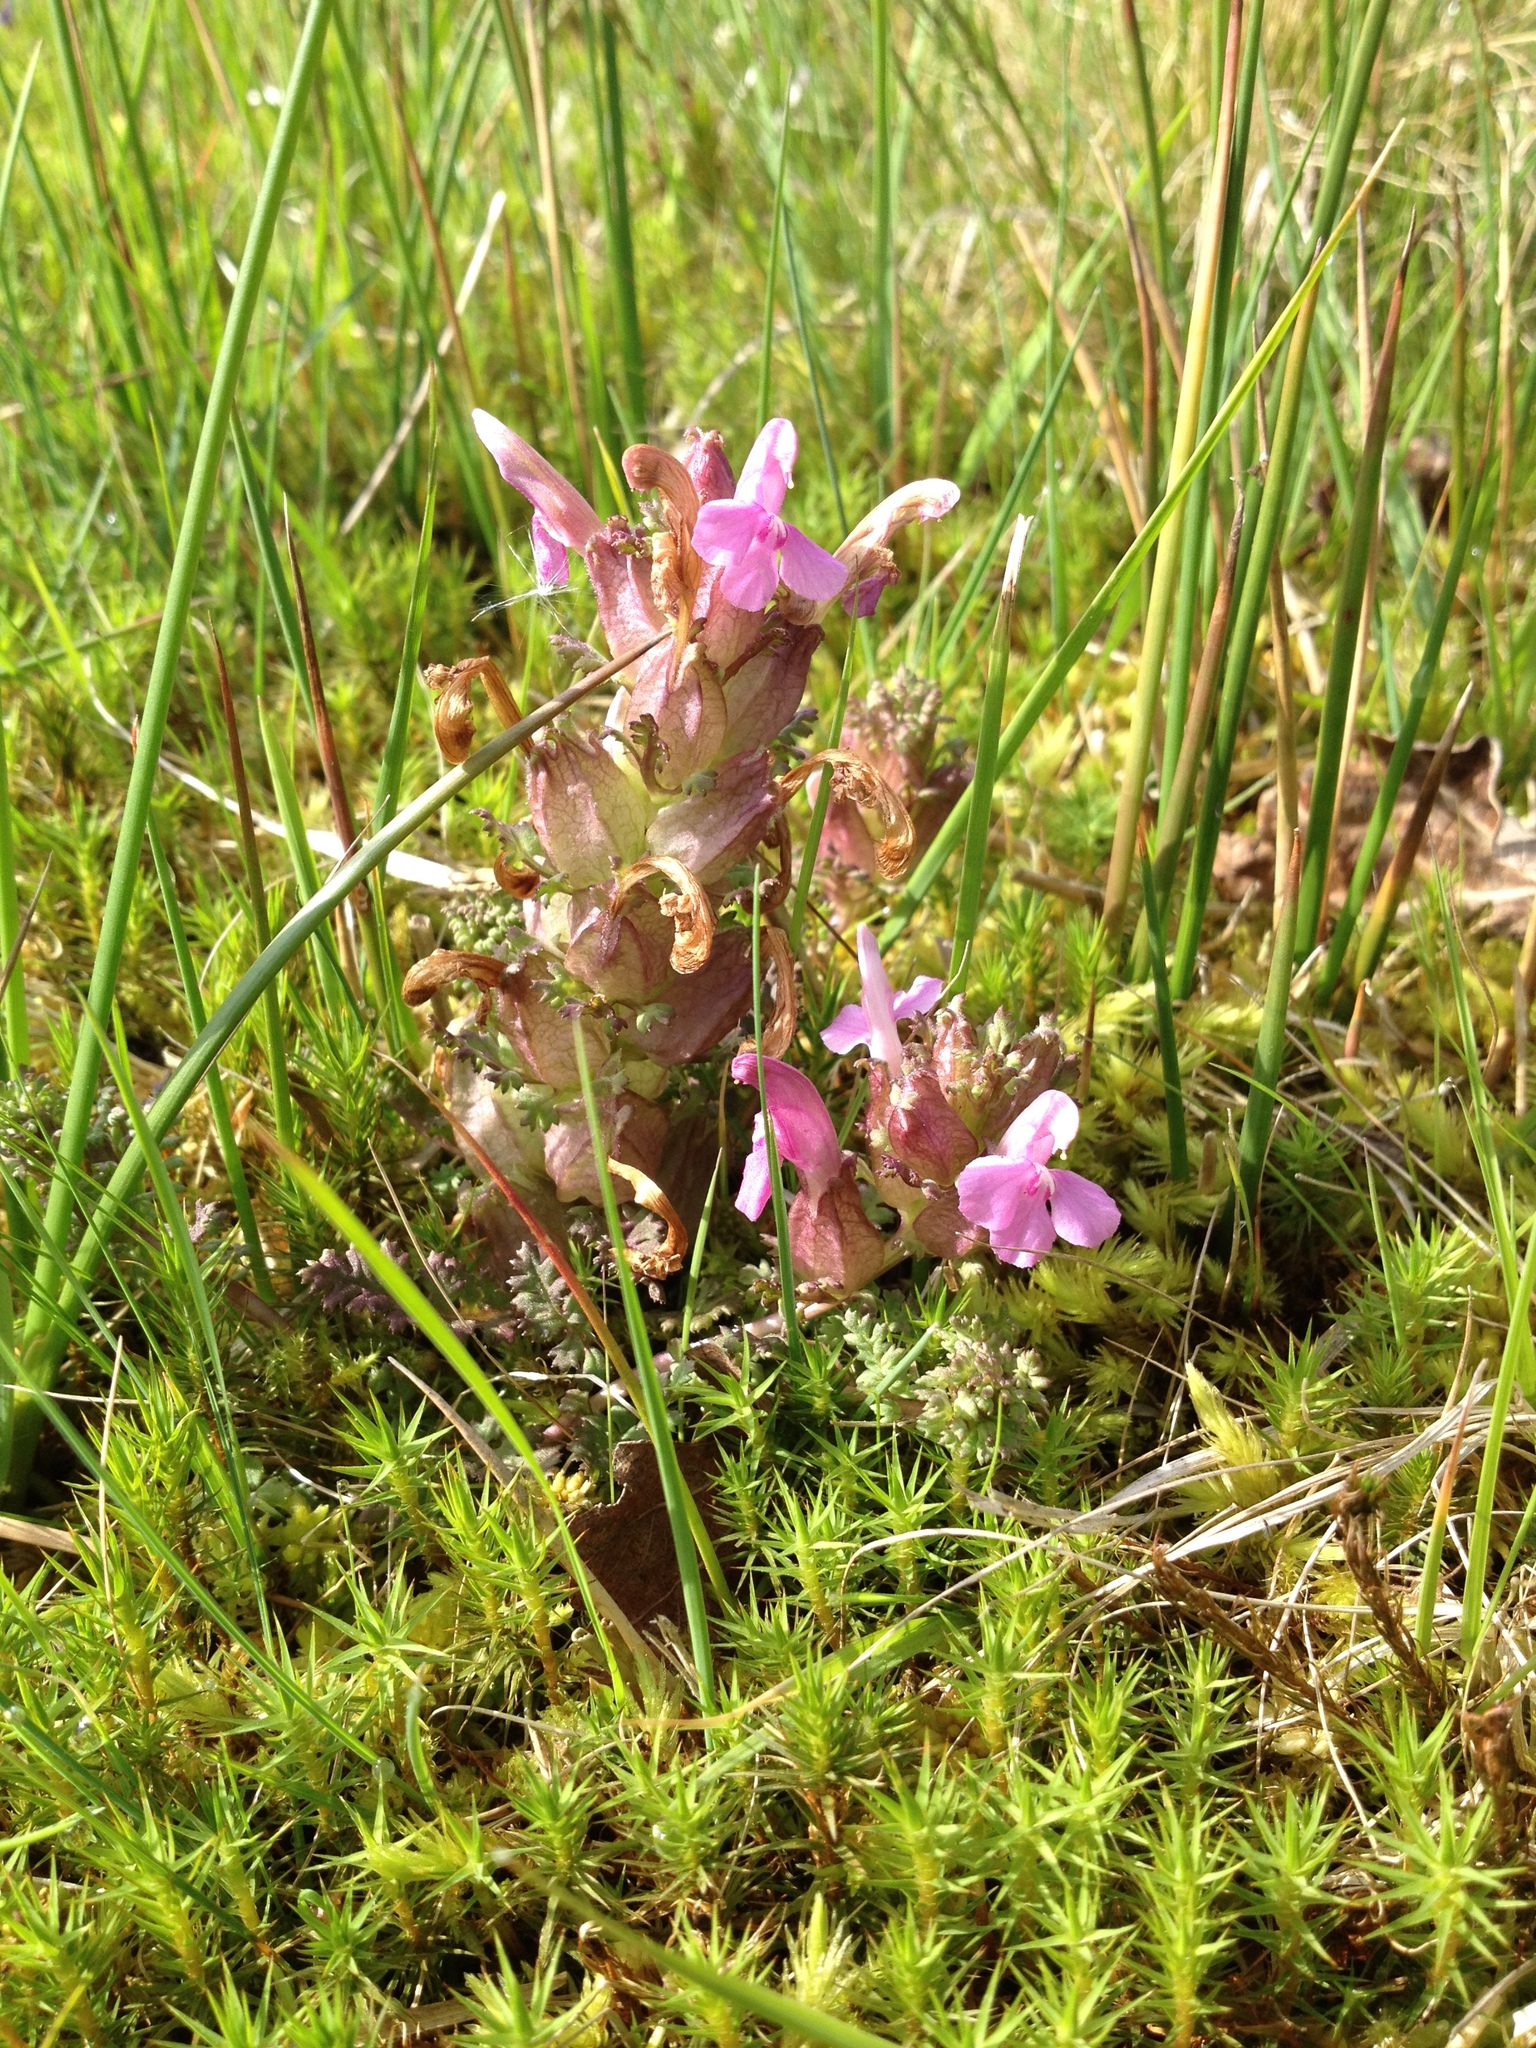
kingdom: Plantae
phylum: Tracheophyta
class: Magnoliopsida
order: Lamiales
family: Orobanchaceae
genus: Pedicularis
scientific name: Pedicularis sylvatica
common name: Lousewort
